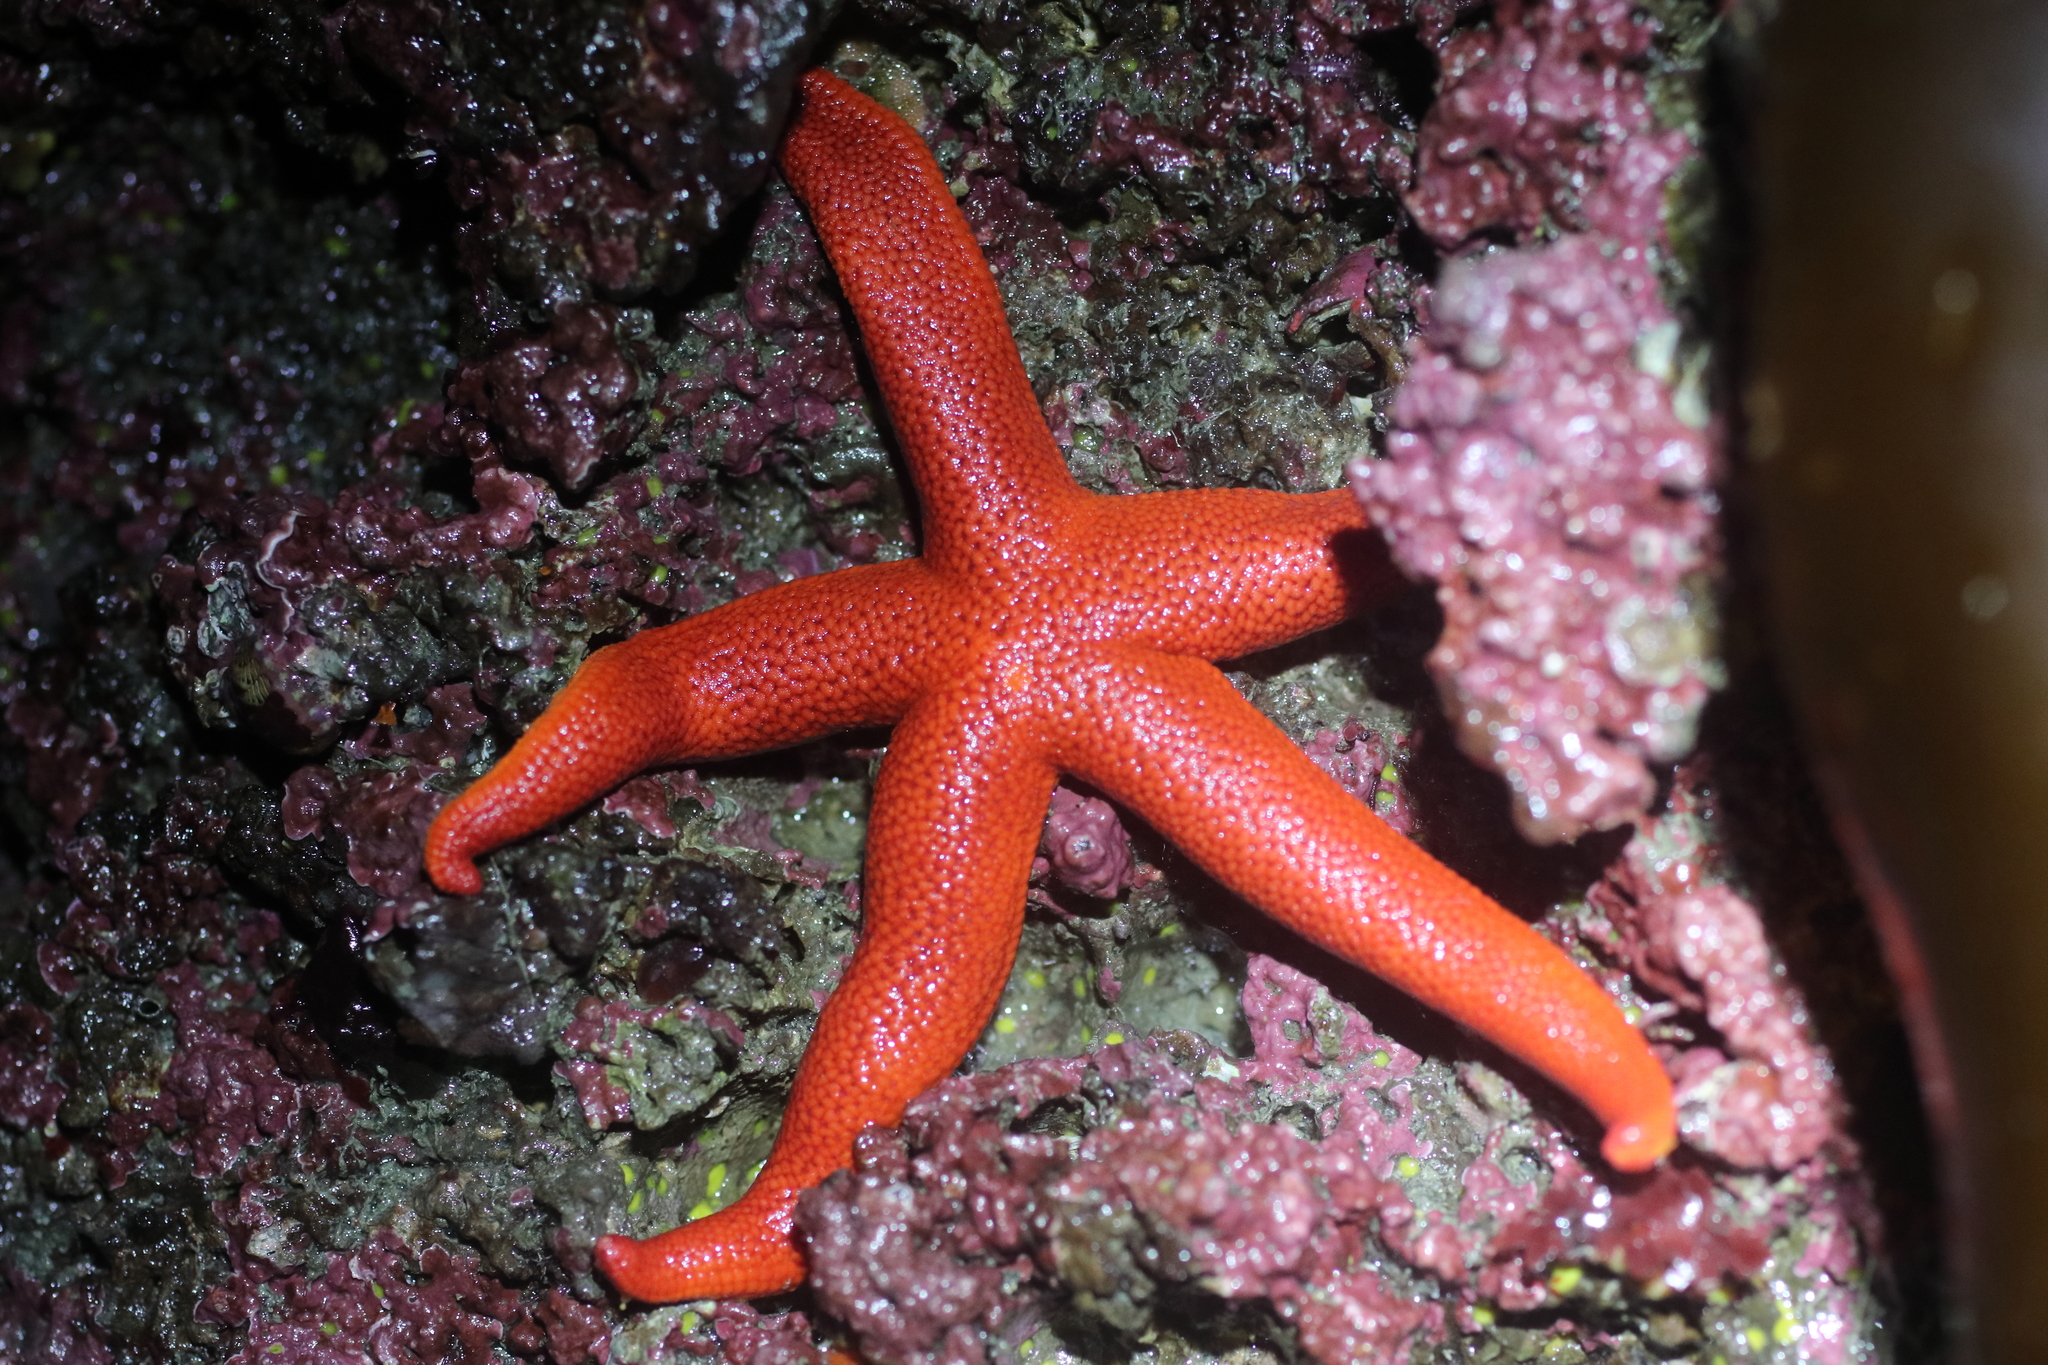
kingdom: Animalia
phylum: Echinodermata
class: Asteroidea
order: Spinulosida
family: Echinasteridae
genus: Henricia
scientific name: Henricia leviuscula
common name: Pacific blood star
